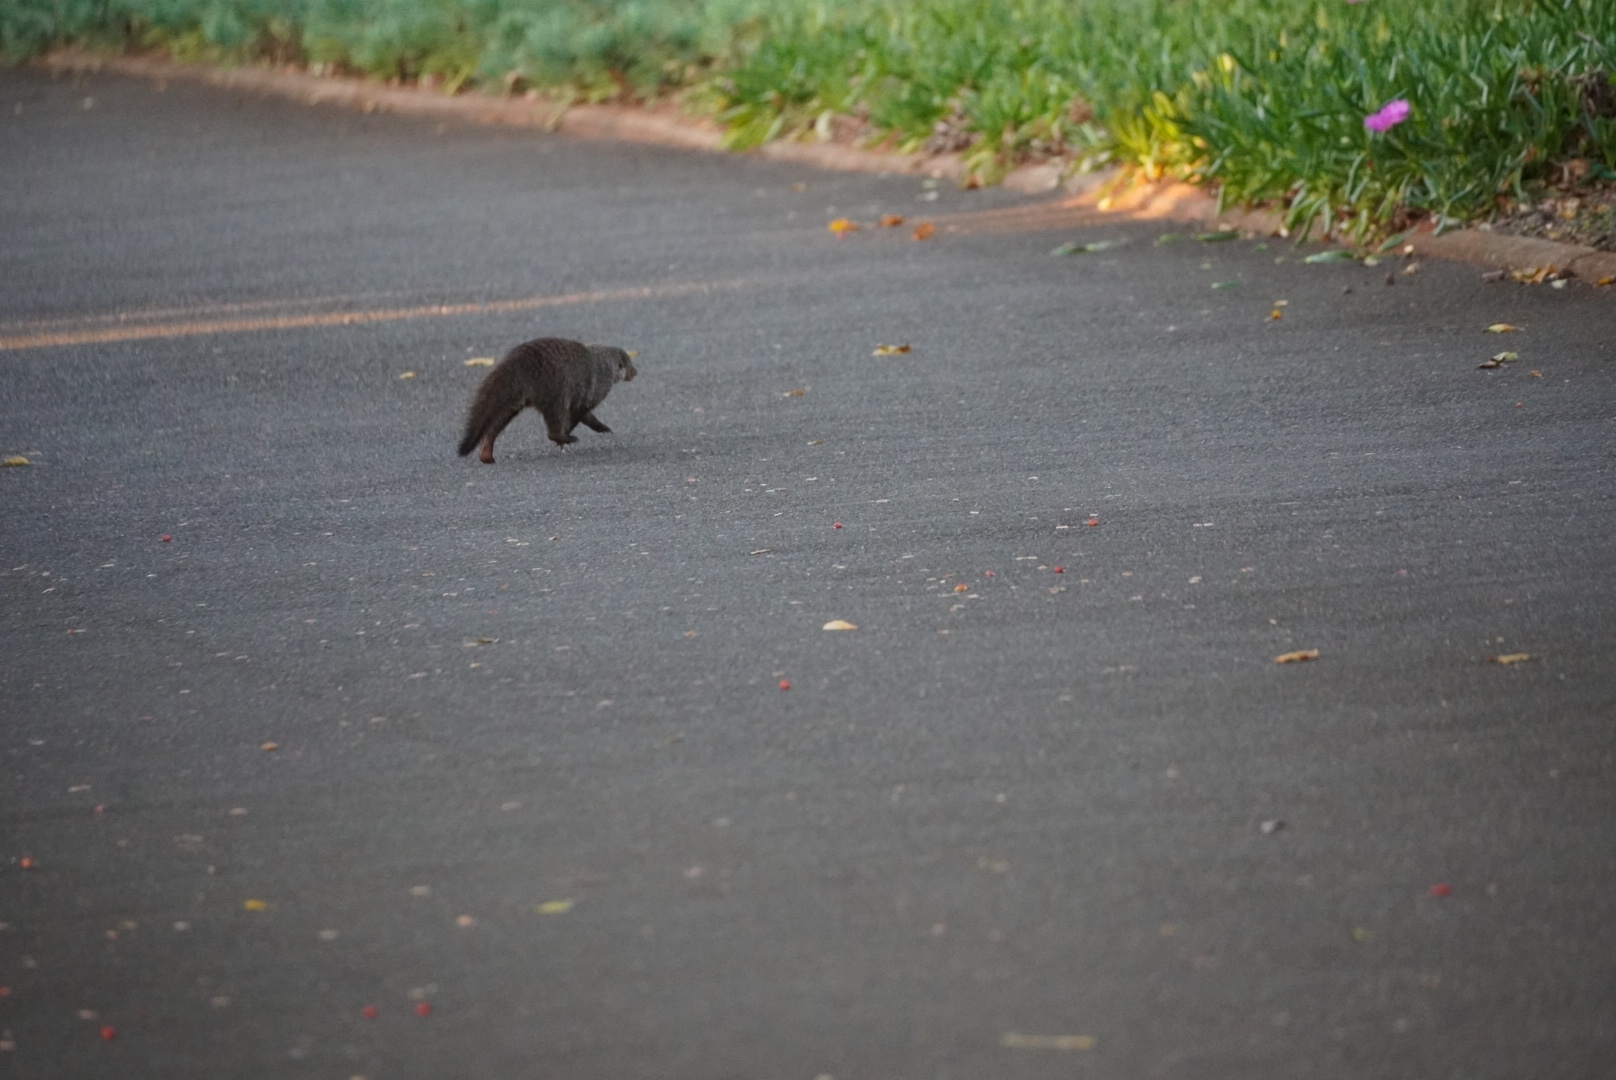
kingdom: Animalia
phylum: Chordata
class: Mammalia
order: Carnivora
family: Herpestidae
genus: Mungos
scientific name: Mungos mungo
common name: Banded mongoose
